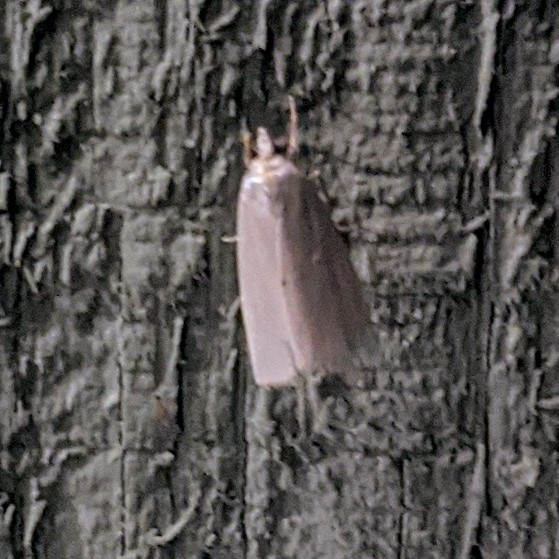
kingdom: Animalia
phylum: Arthropoda
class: Insecta
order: Lepidoptera
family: Crambidae
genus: Argyria
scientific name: Argyria nivalis
